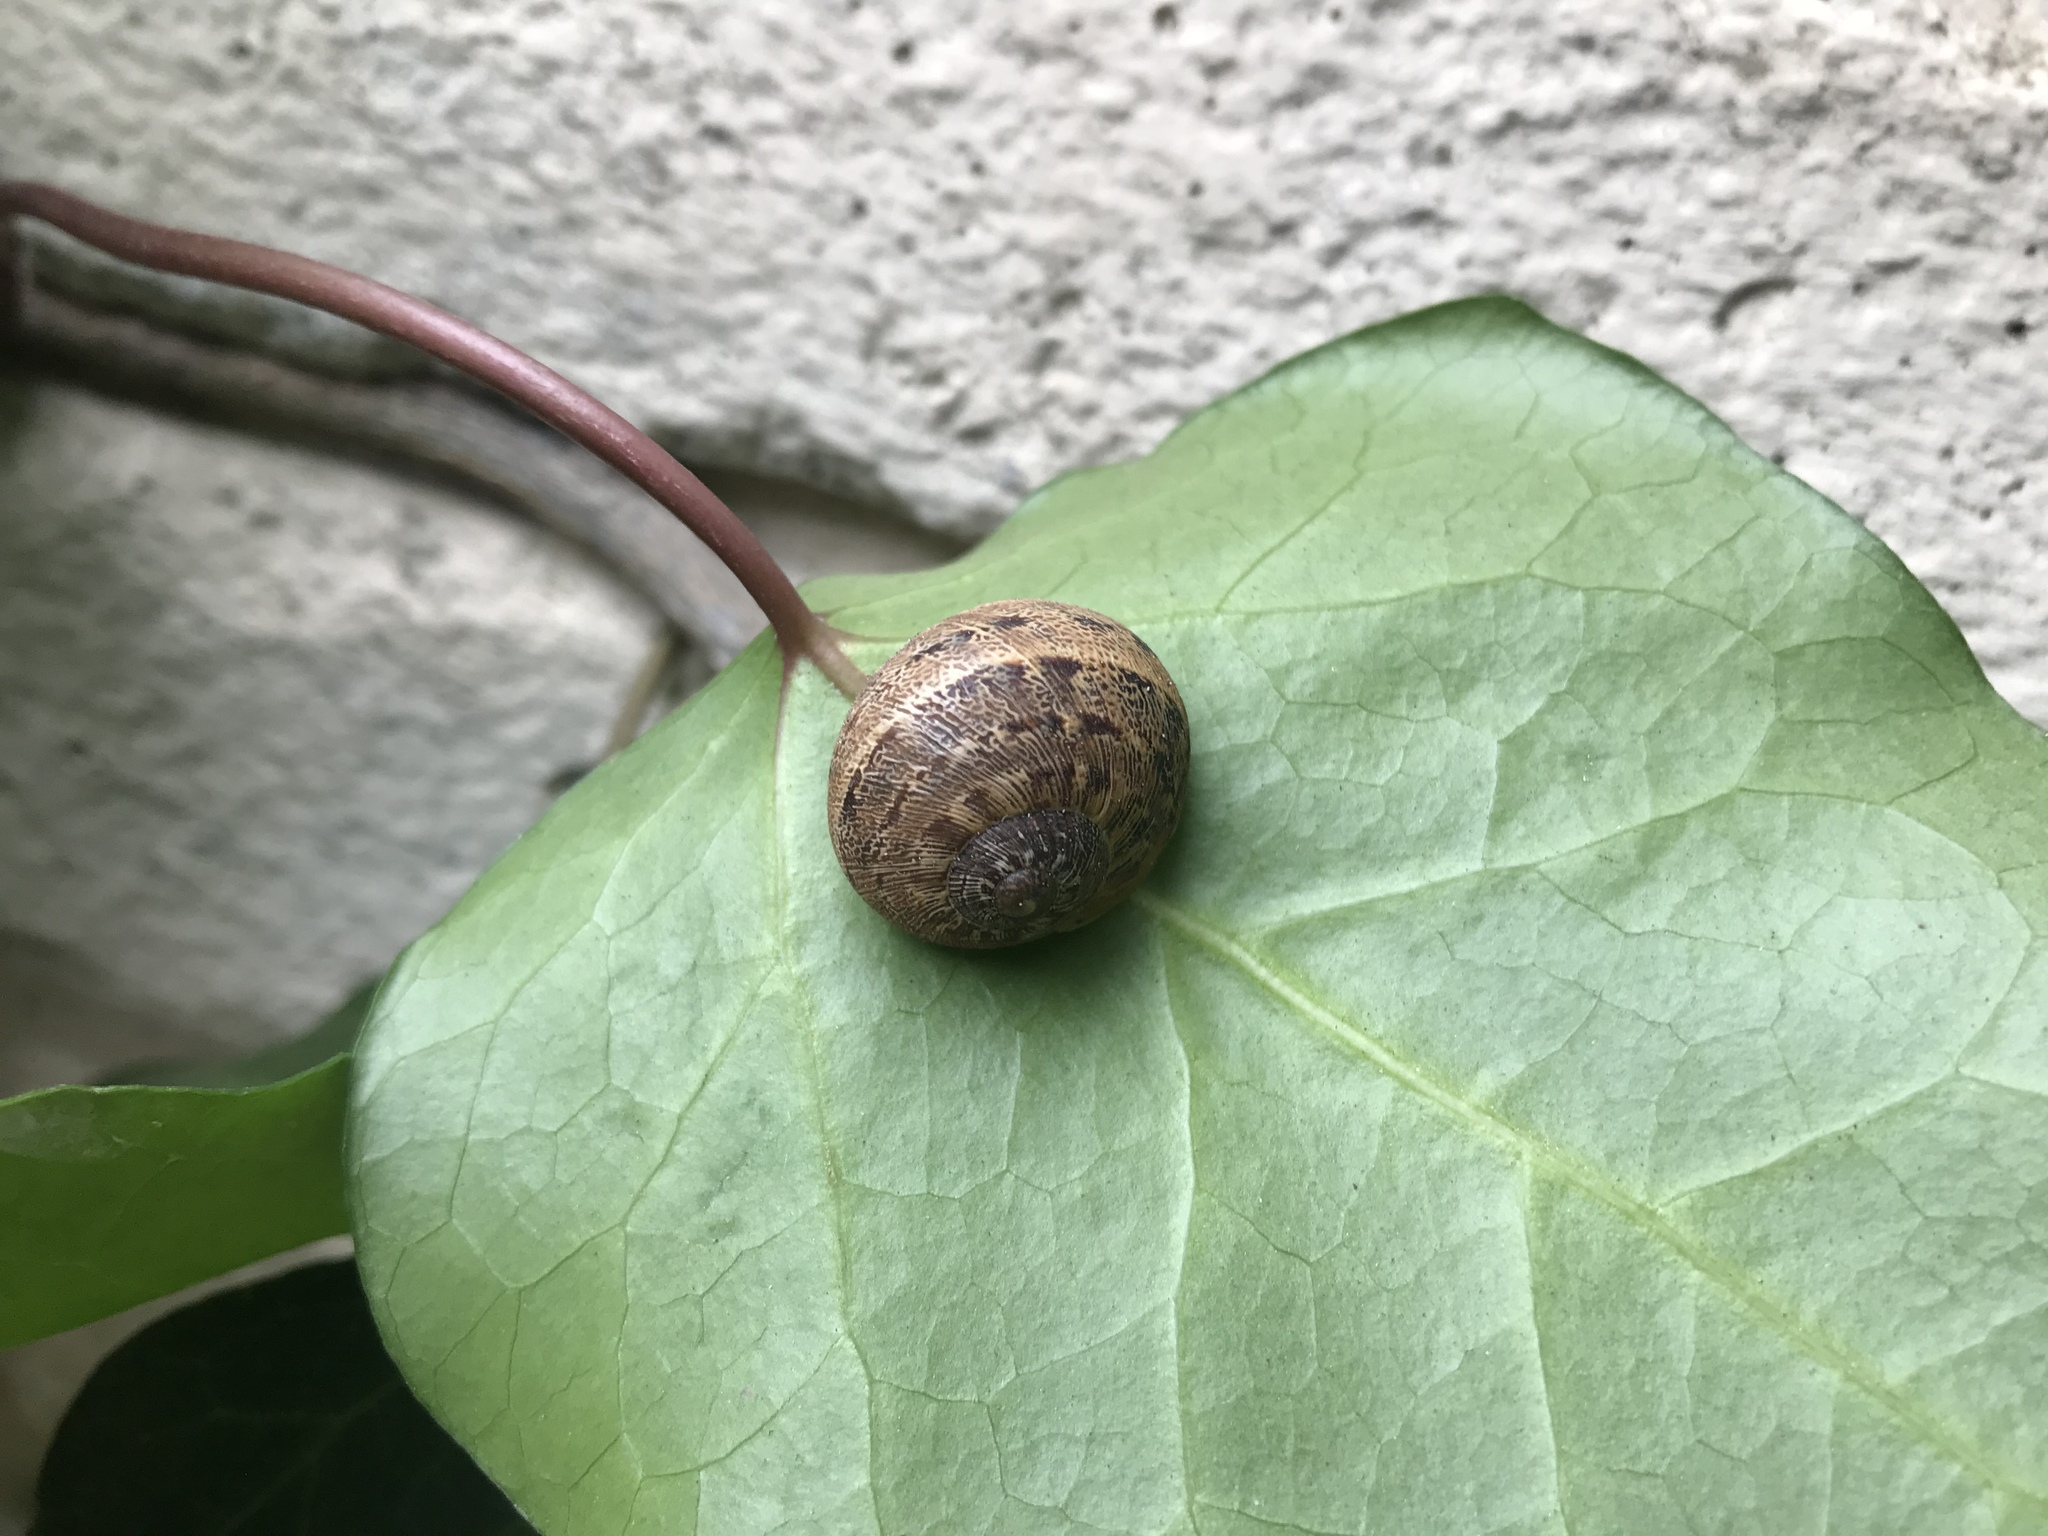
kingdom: Animalia
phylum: Mollusca
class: Gastropoda
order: Stylommatophora
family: Helicidae
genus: Cornu
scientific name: Cornu aspersum
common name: Brown garden snail
